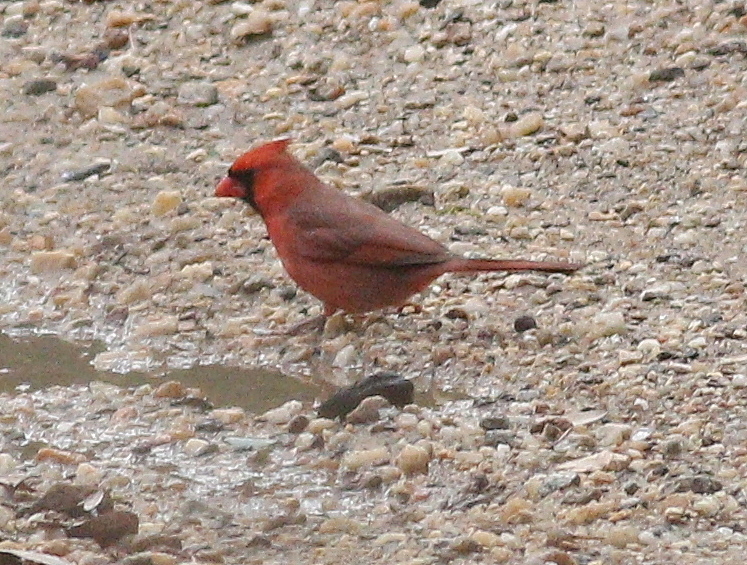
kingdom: Animalia
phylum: Chordata
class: Aves
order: Passeriformes
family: Cardinalidae
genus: Cardinalis
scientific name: Cardinalis cardinalis
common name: Northern cardinal
